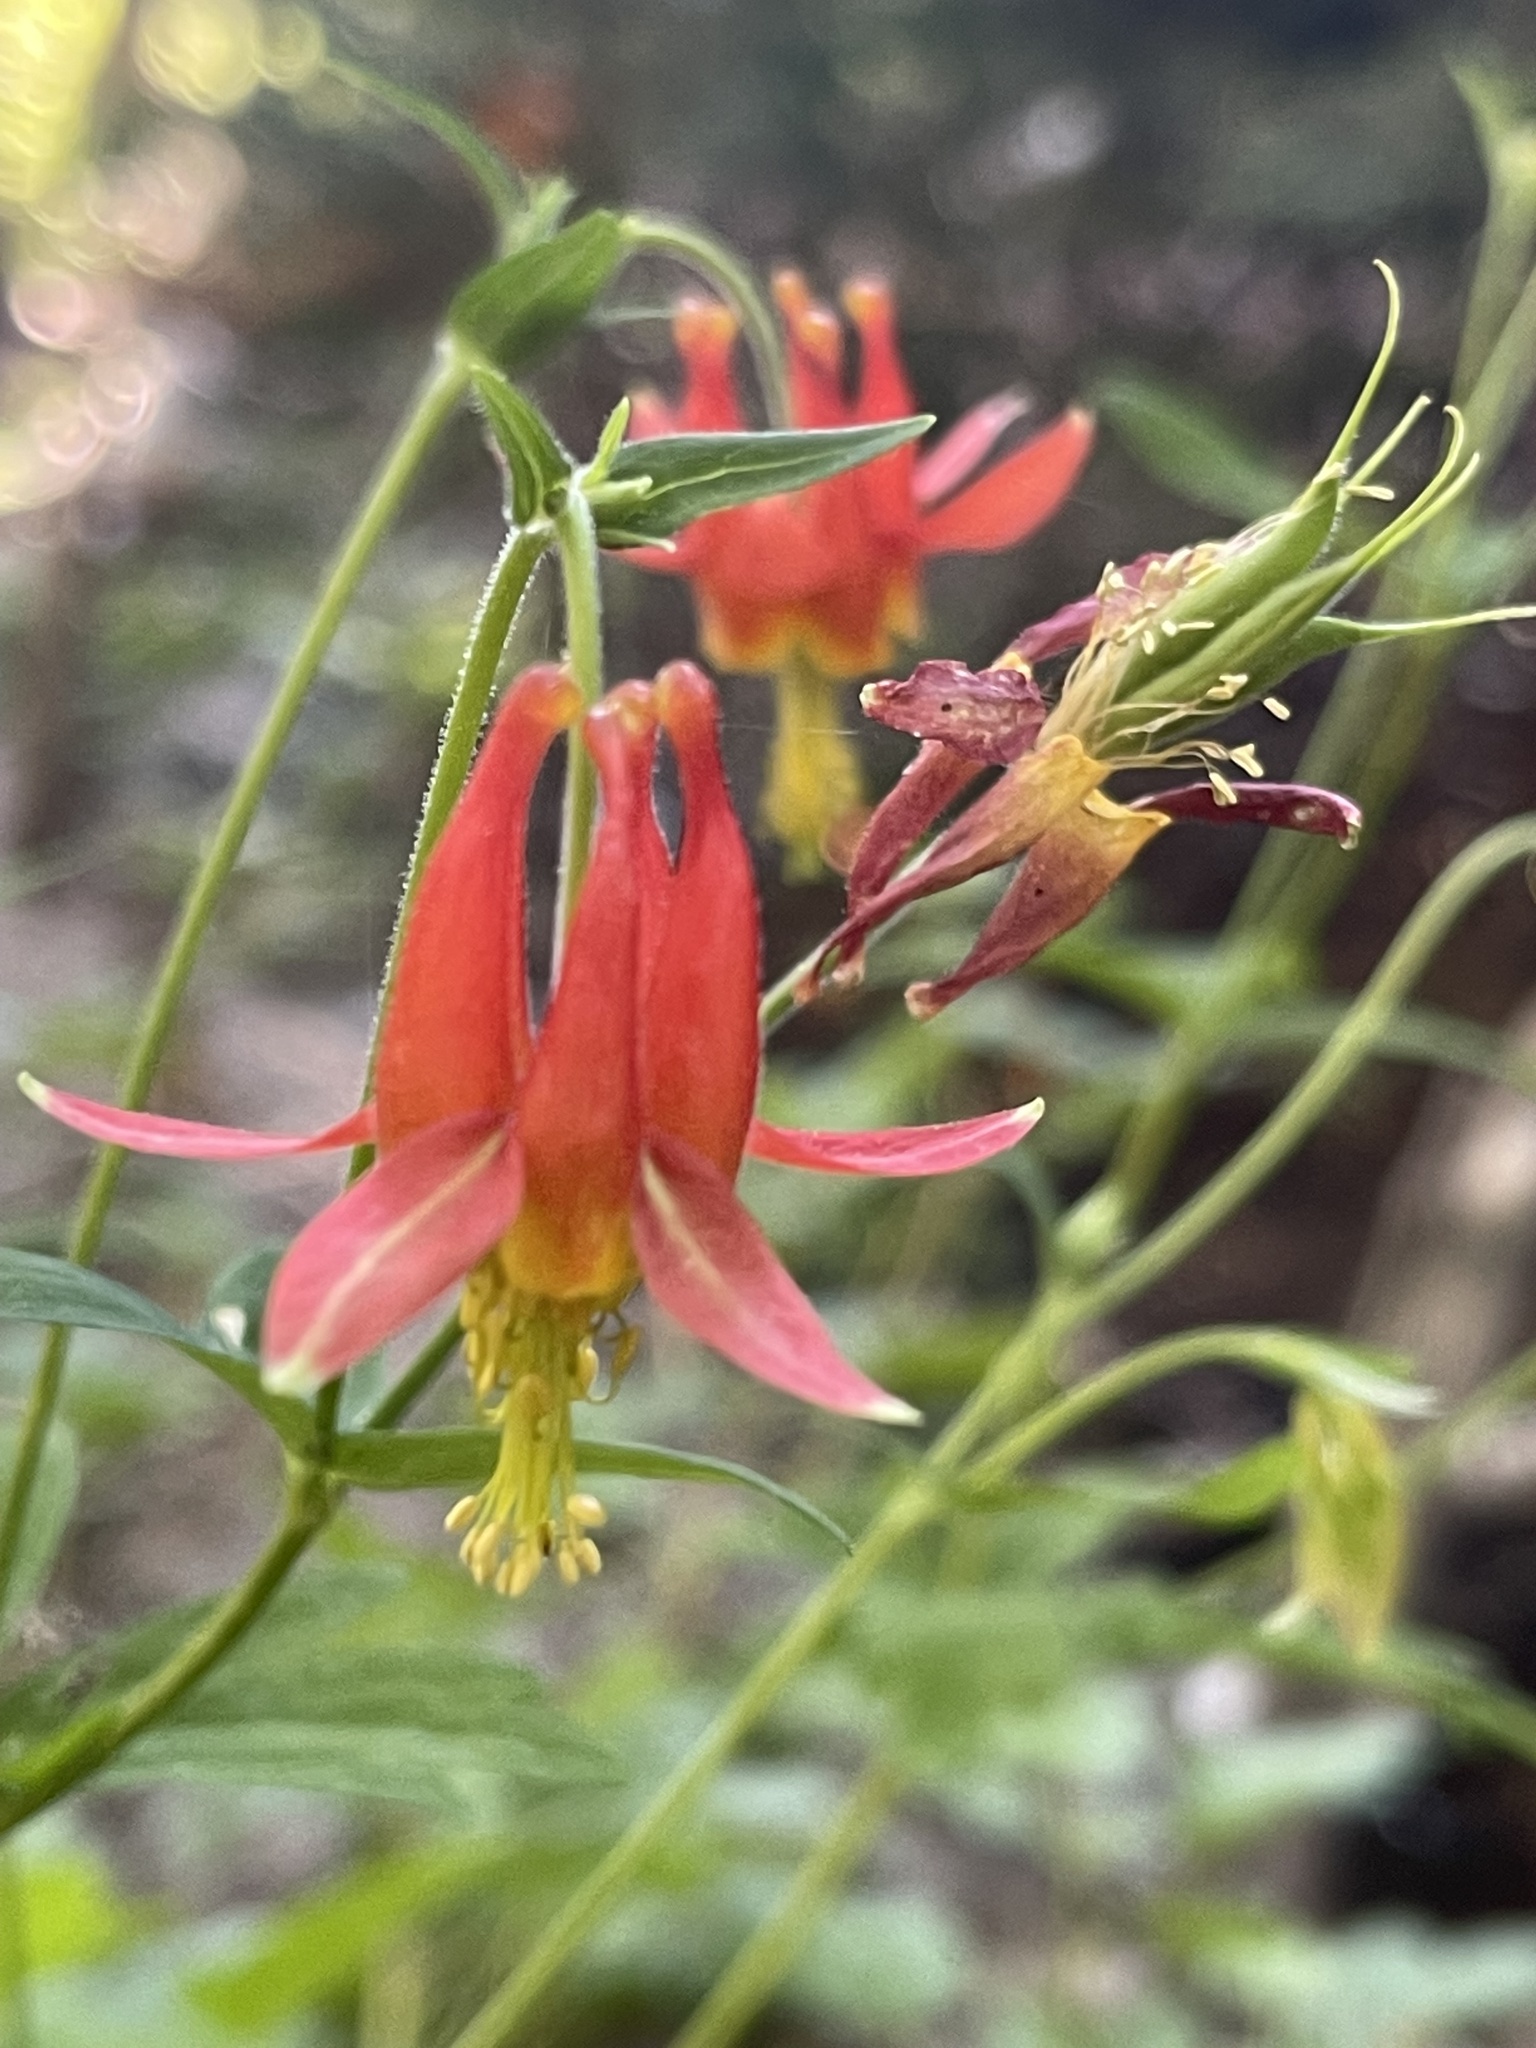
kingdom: Plantae
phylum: Tracheophyta
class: Magnoliopsida
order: Ranunculales
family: Ranunculaceae
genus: Aquilegia
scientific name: Aquilegia formosa
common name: Sitka columbine
